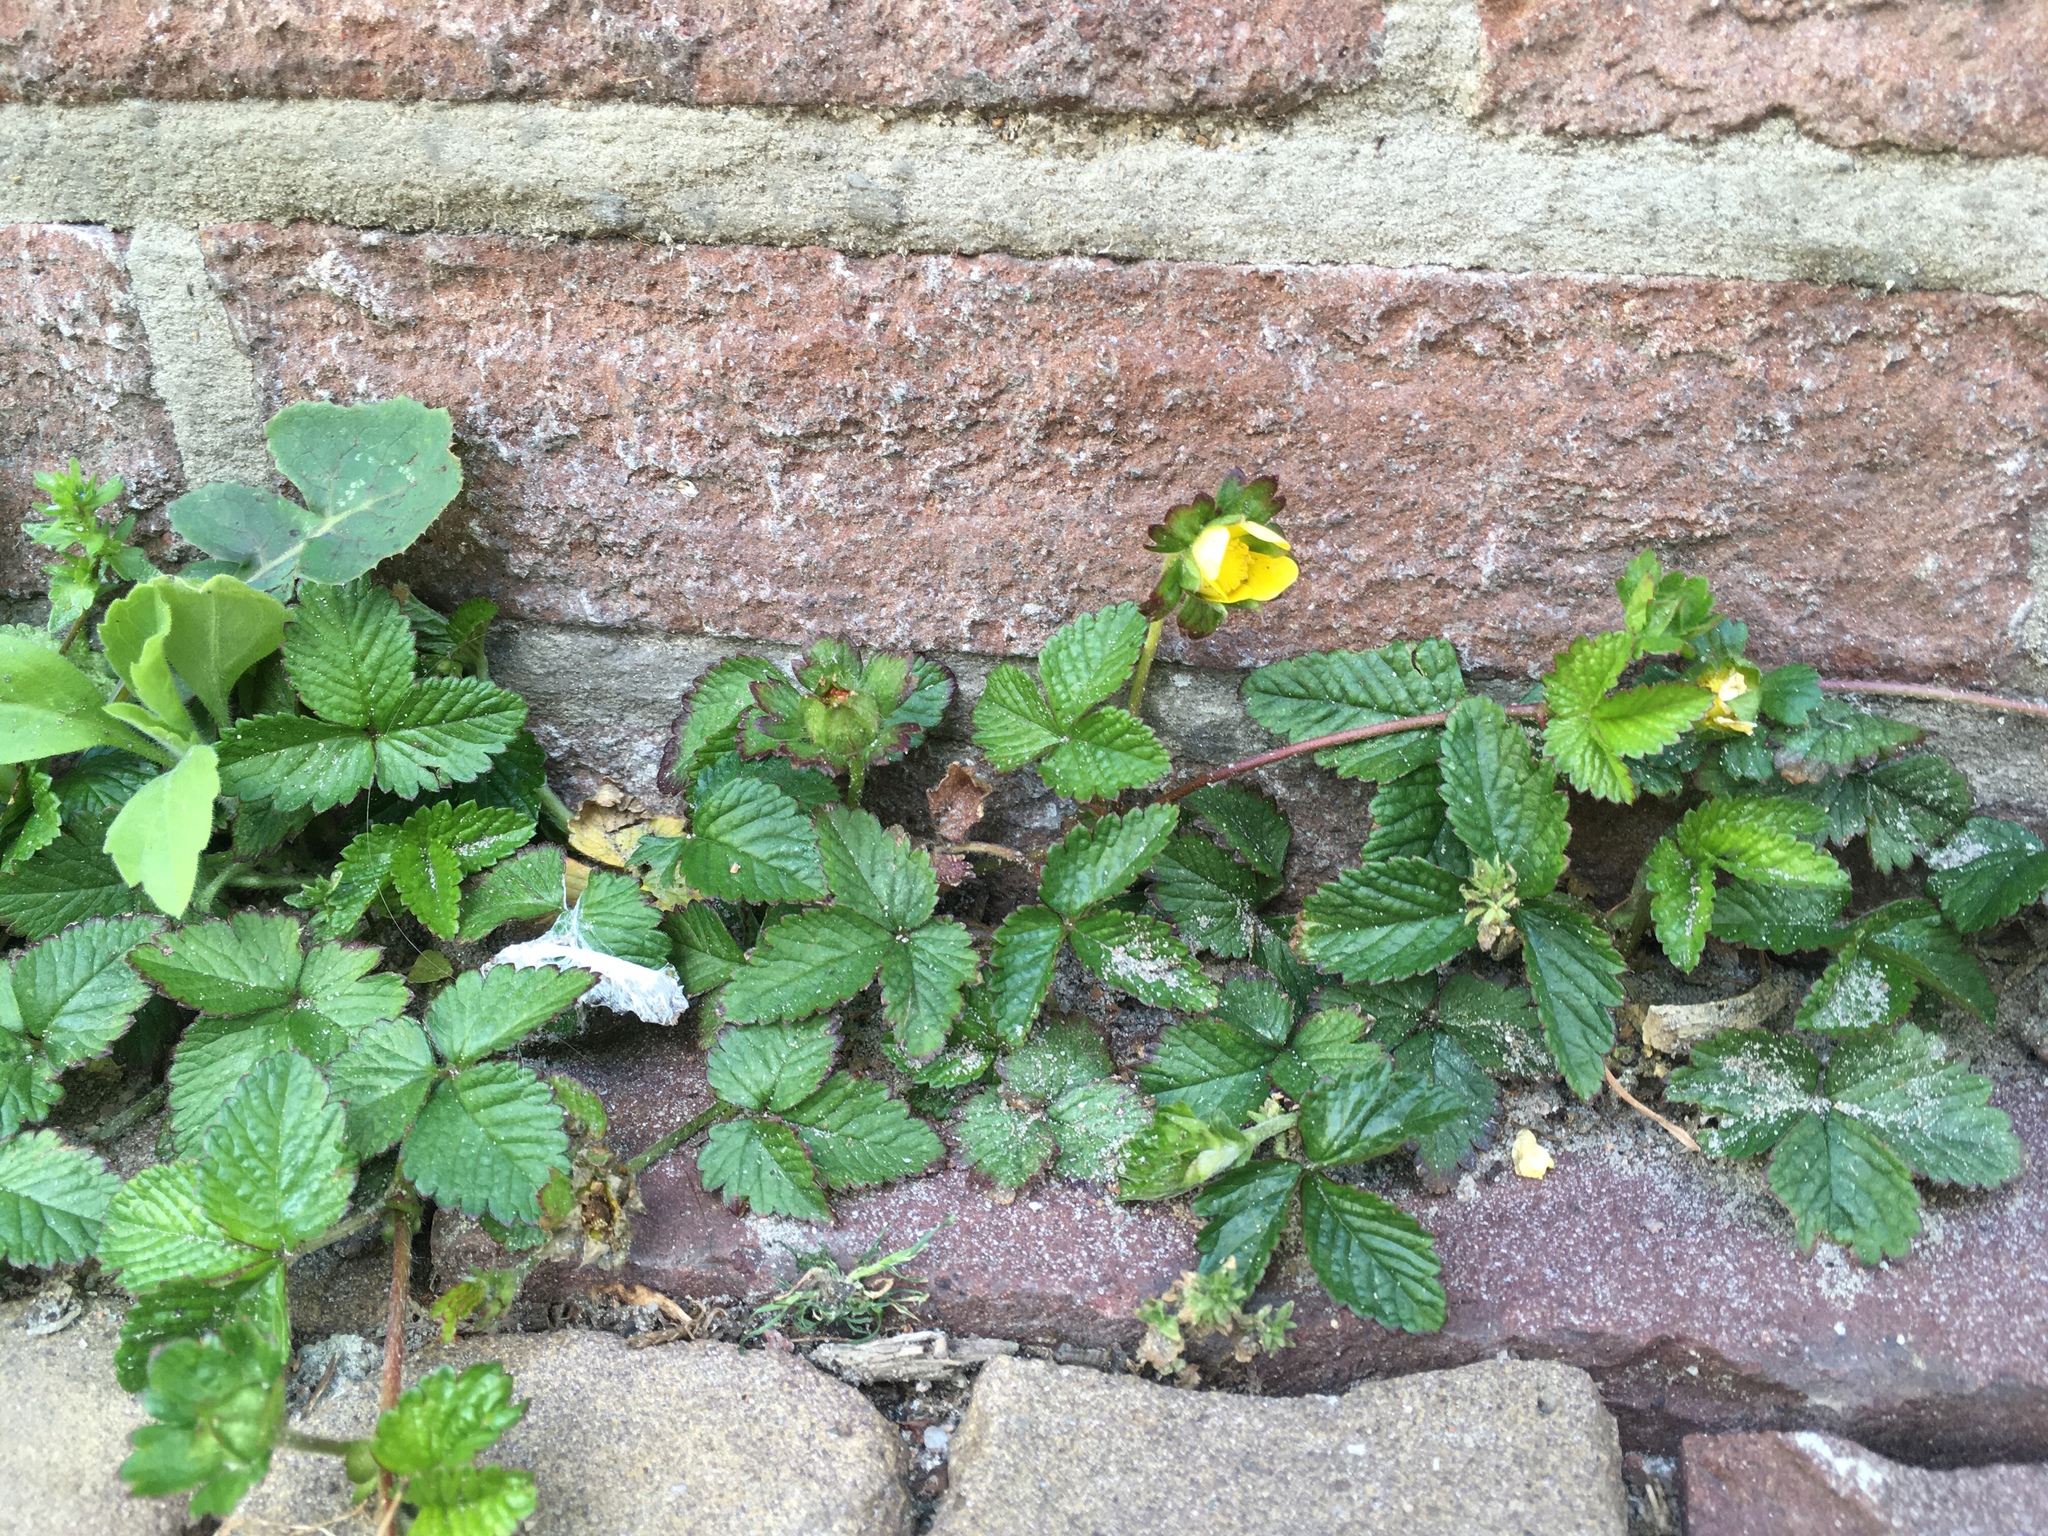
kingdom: Plantae
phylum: Tracheophyta
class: Magnoliopsida
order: Rosales
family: Rosaceae
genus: Potentilla
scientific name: Potentilla indica
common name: Yellow-flowered strawberry
